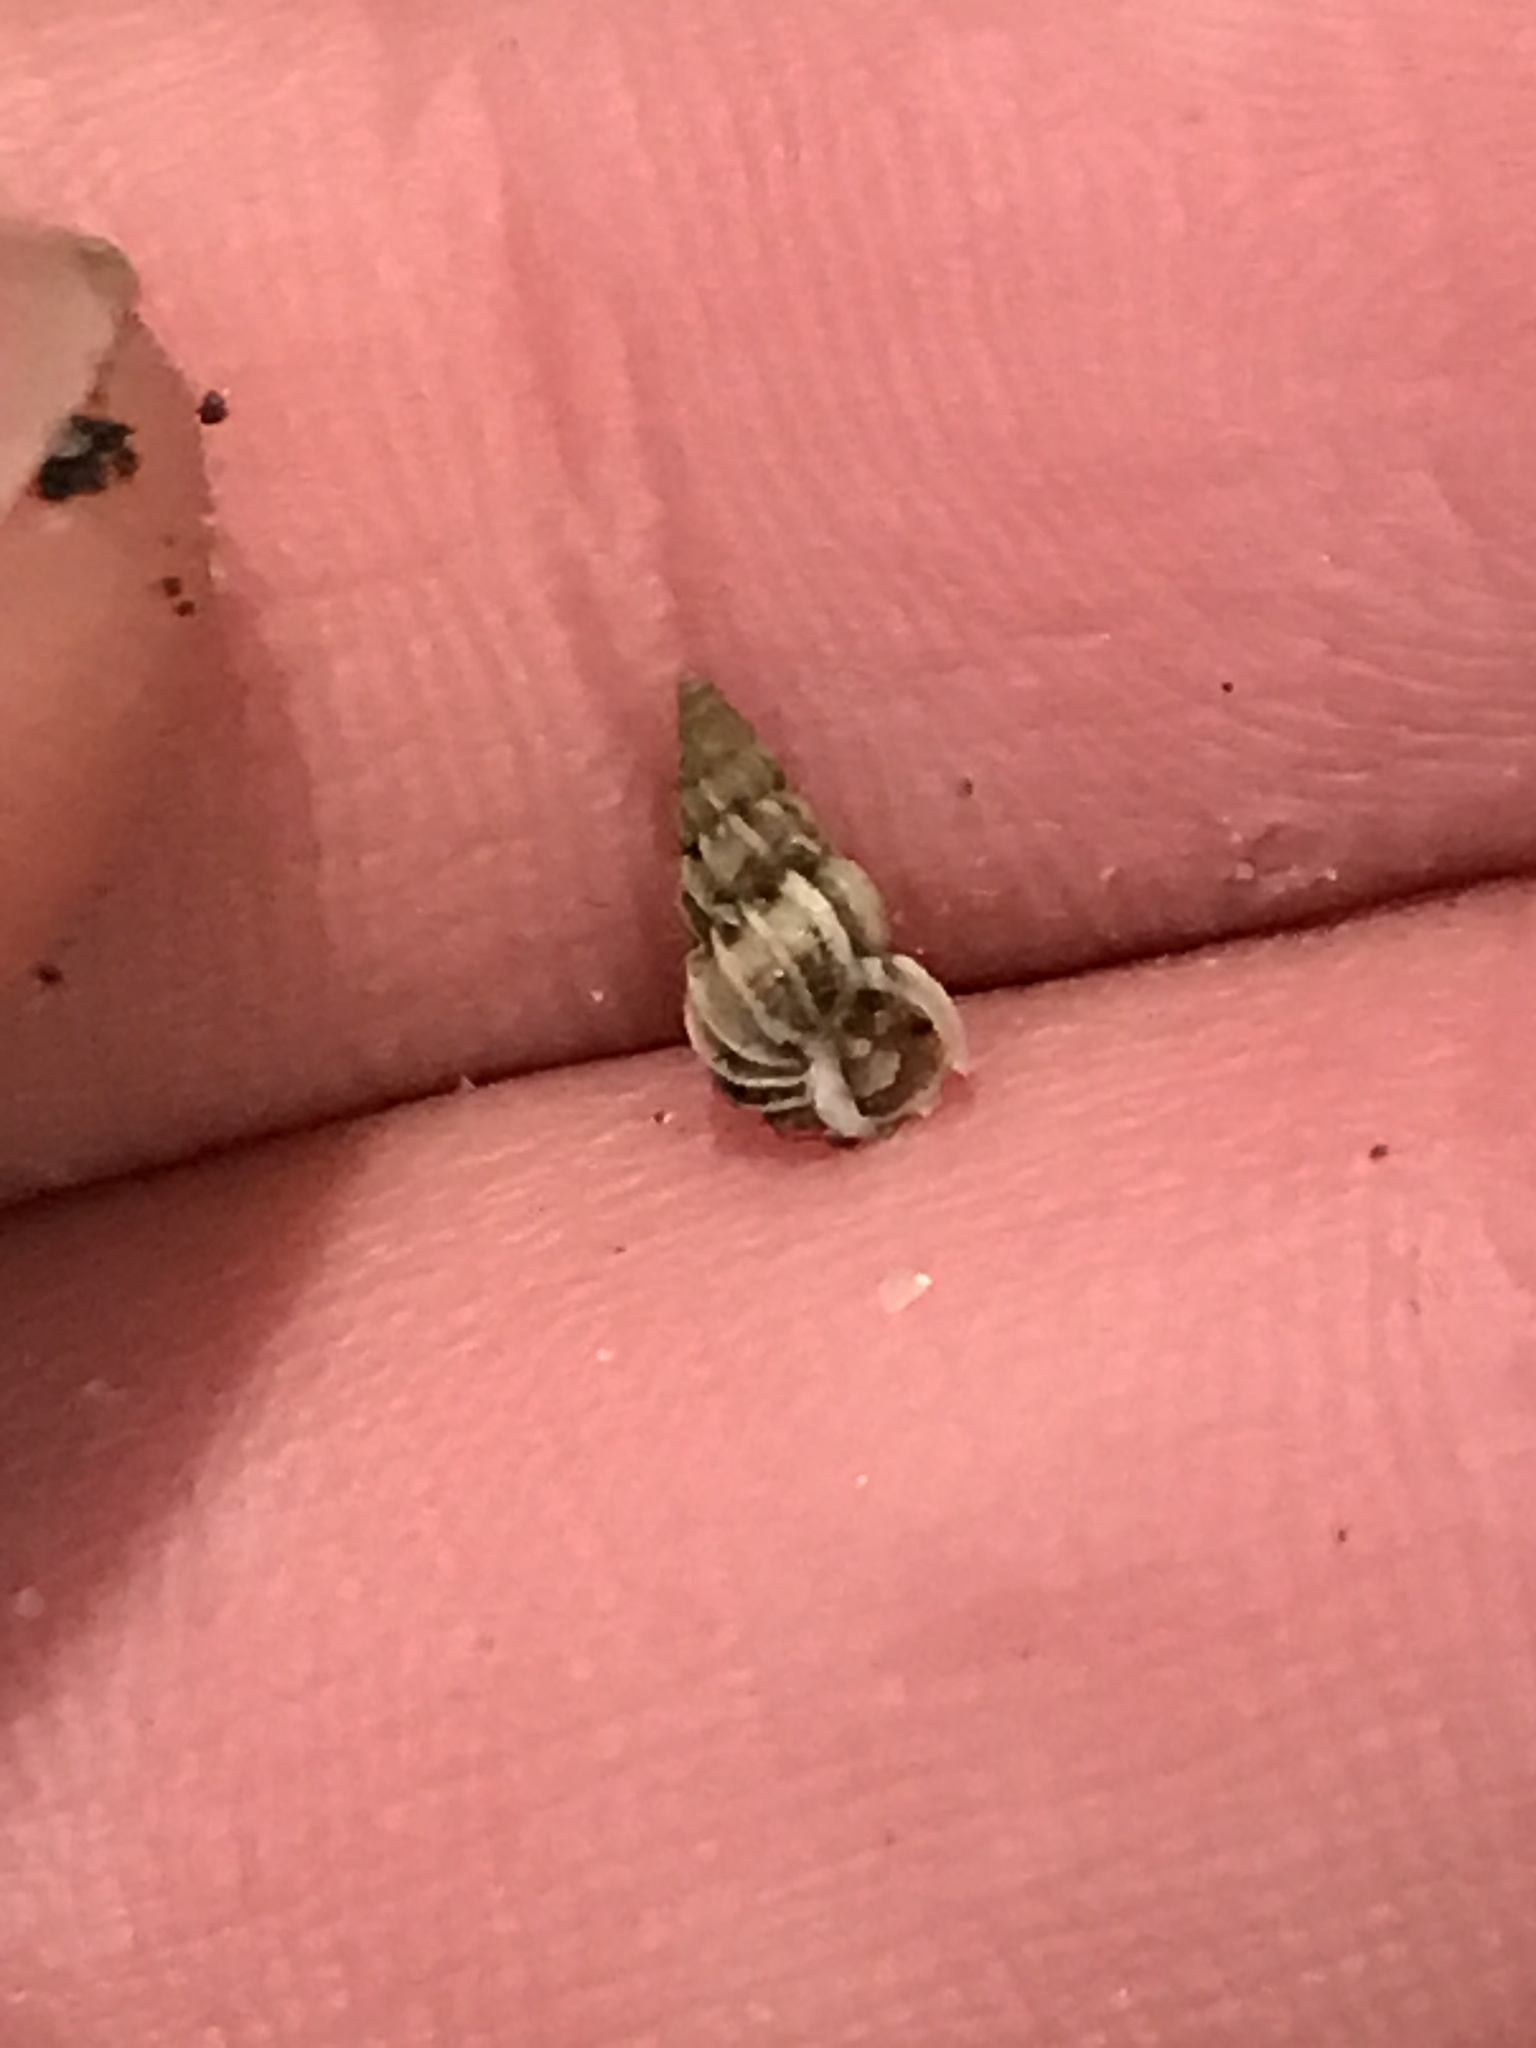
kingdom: Animalia
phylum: Mollusca
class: Gastropoda
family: Epitoniidae
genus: Epitonium
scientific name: Epitonium tinctum
